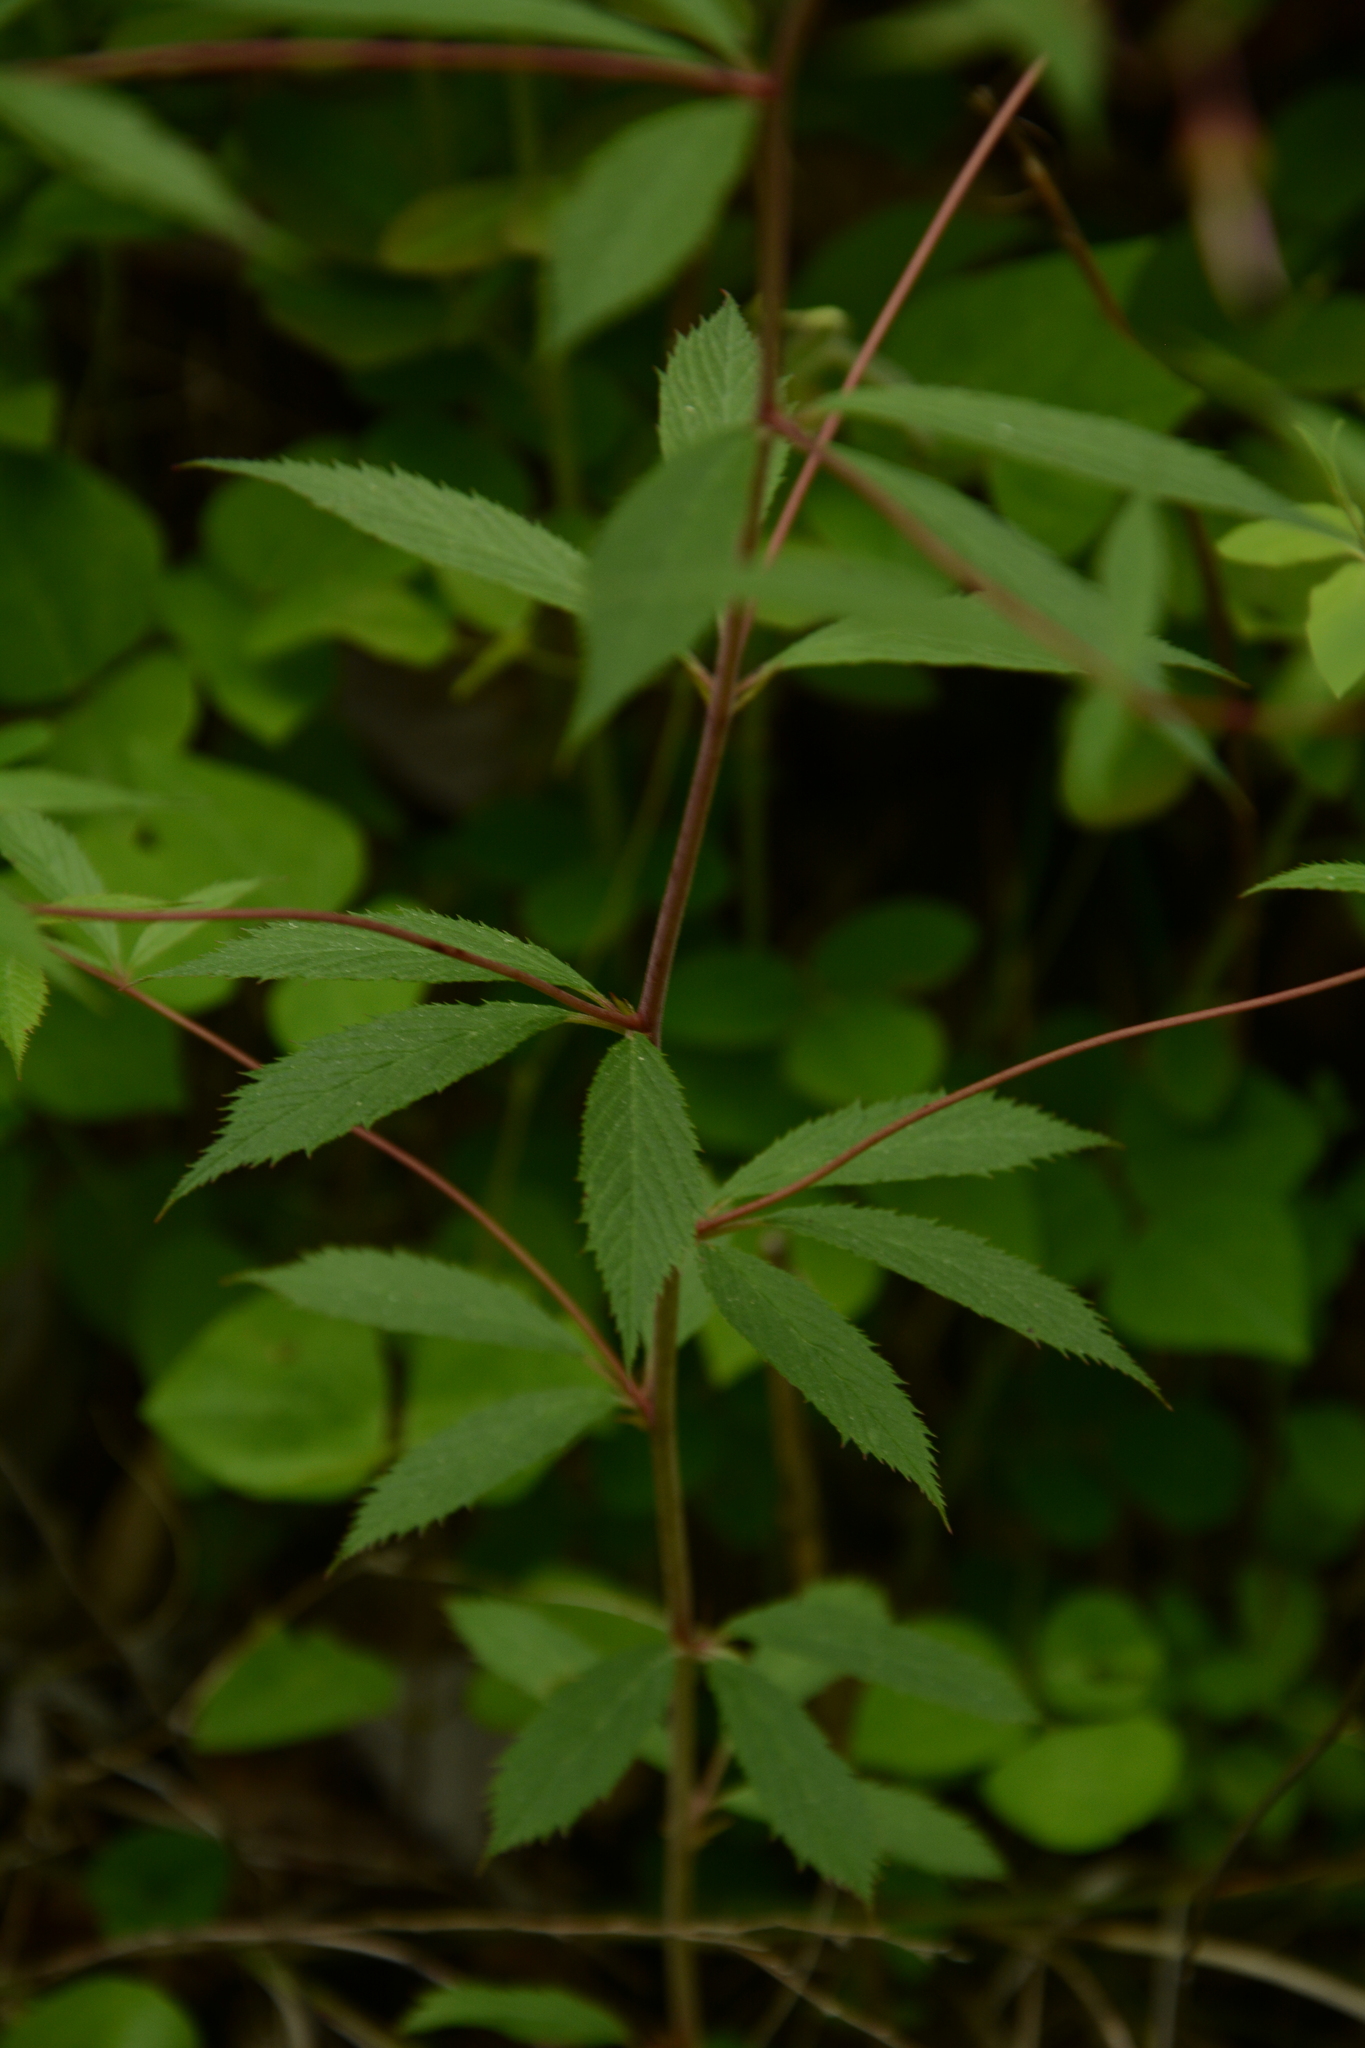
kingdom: Plantae
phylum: Tracheophyta
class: Magnoliopsida
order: Rosales
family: Rosaceae
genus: Gillenia
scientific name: Gillenia trifoliata
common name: Bowman's-root
